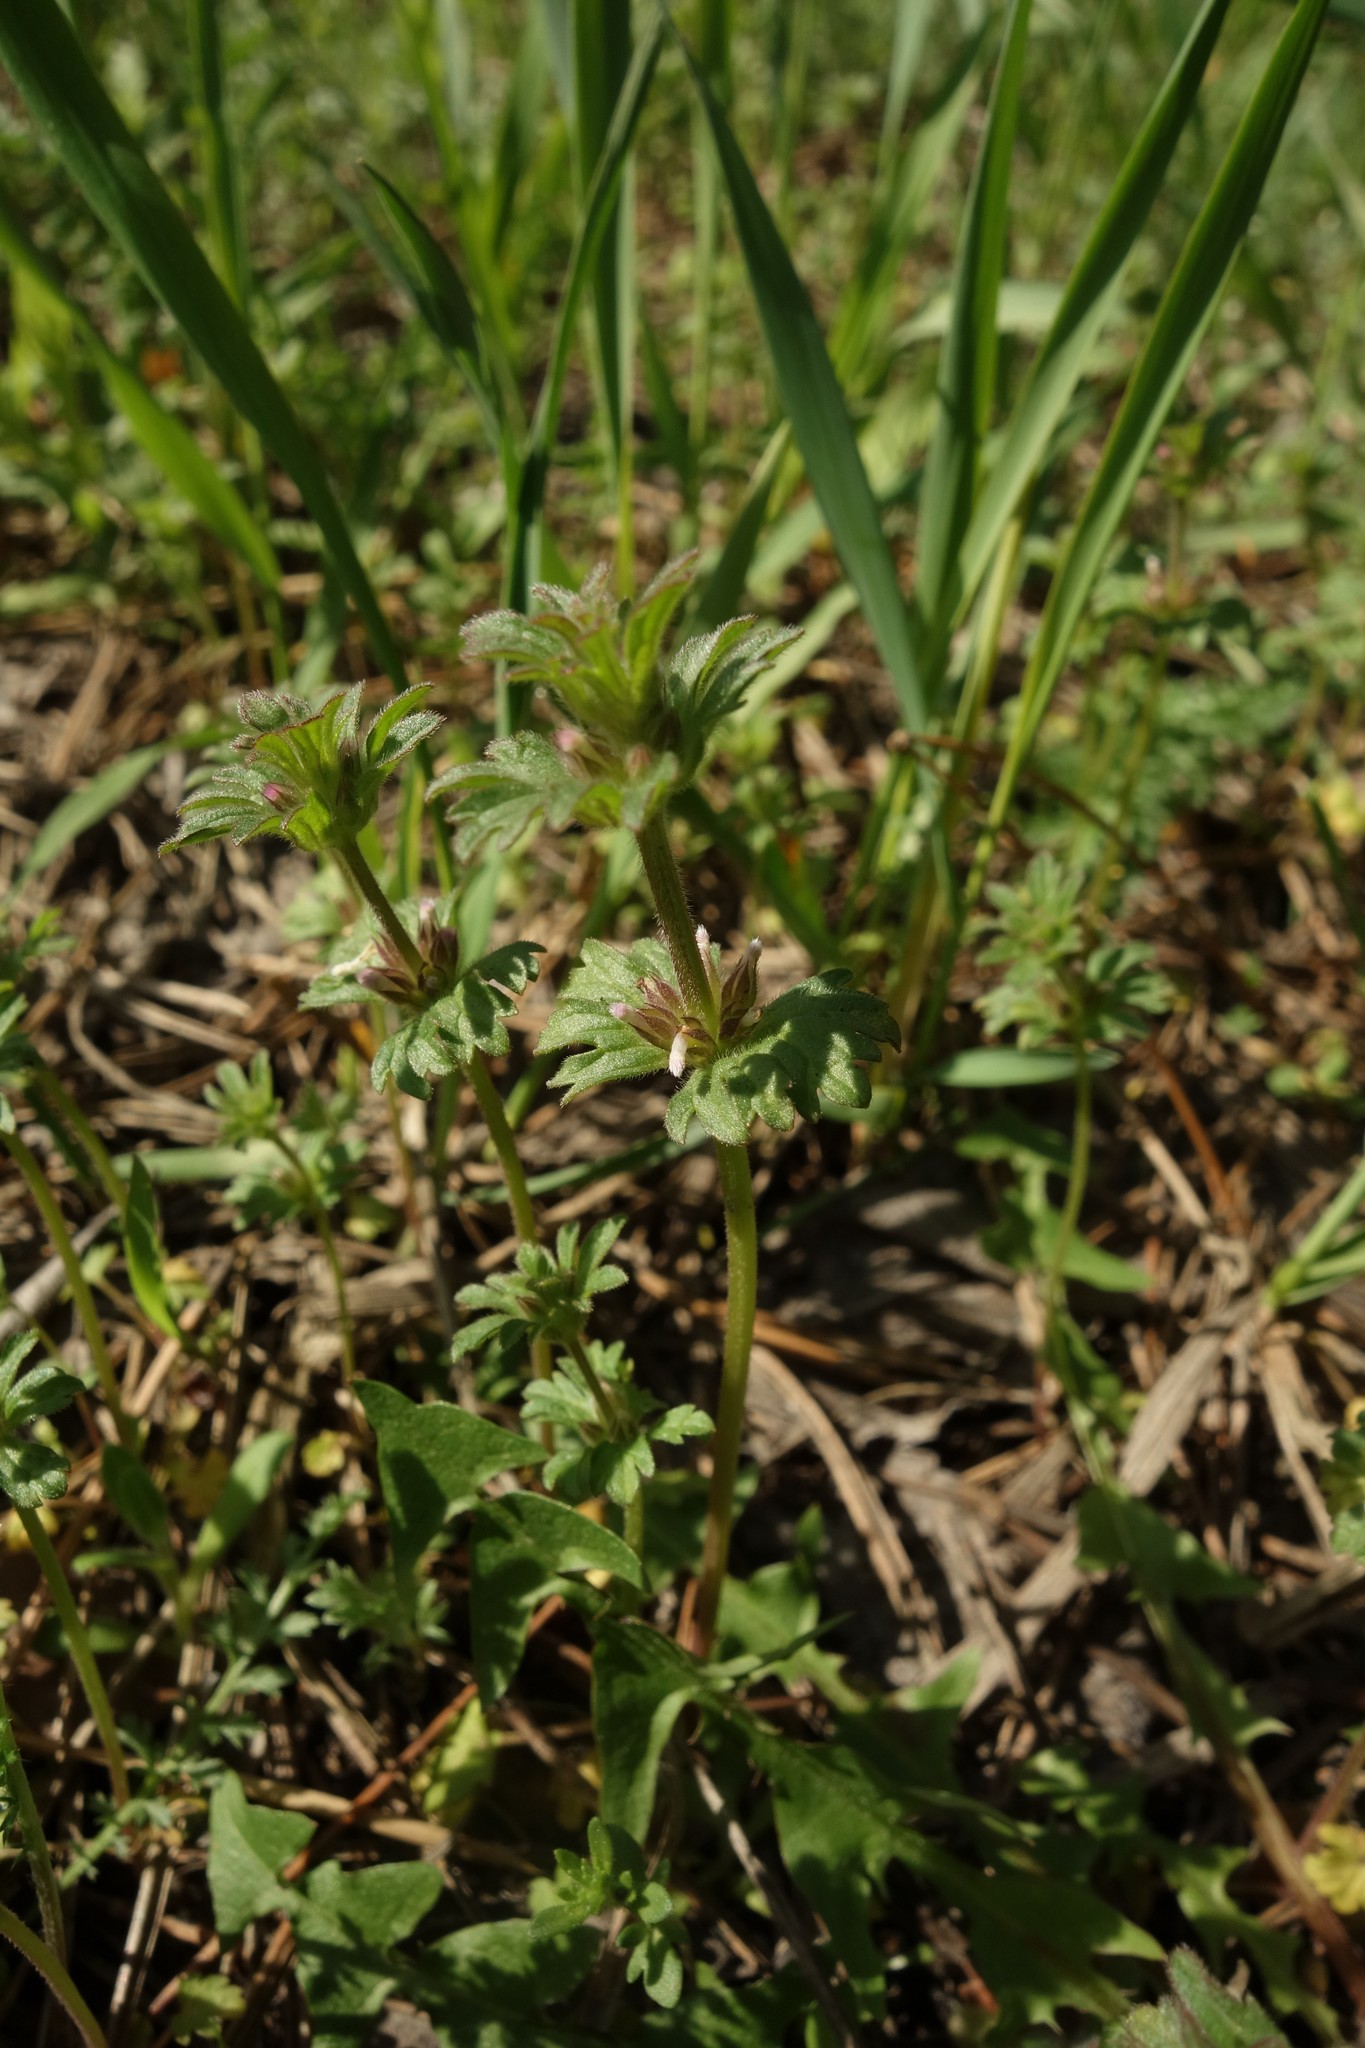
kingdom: Plantae
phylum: Tracheophyta
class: Magnoliopsida
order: Lamiales
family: Lamiaceae
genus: Lamium
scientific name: Lamium amplexicaule
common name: Henbit dead-nettle
